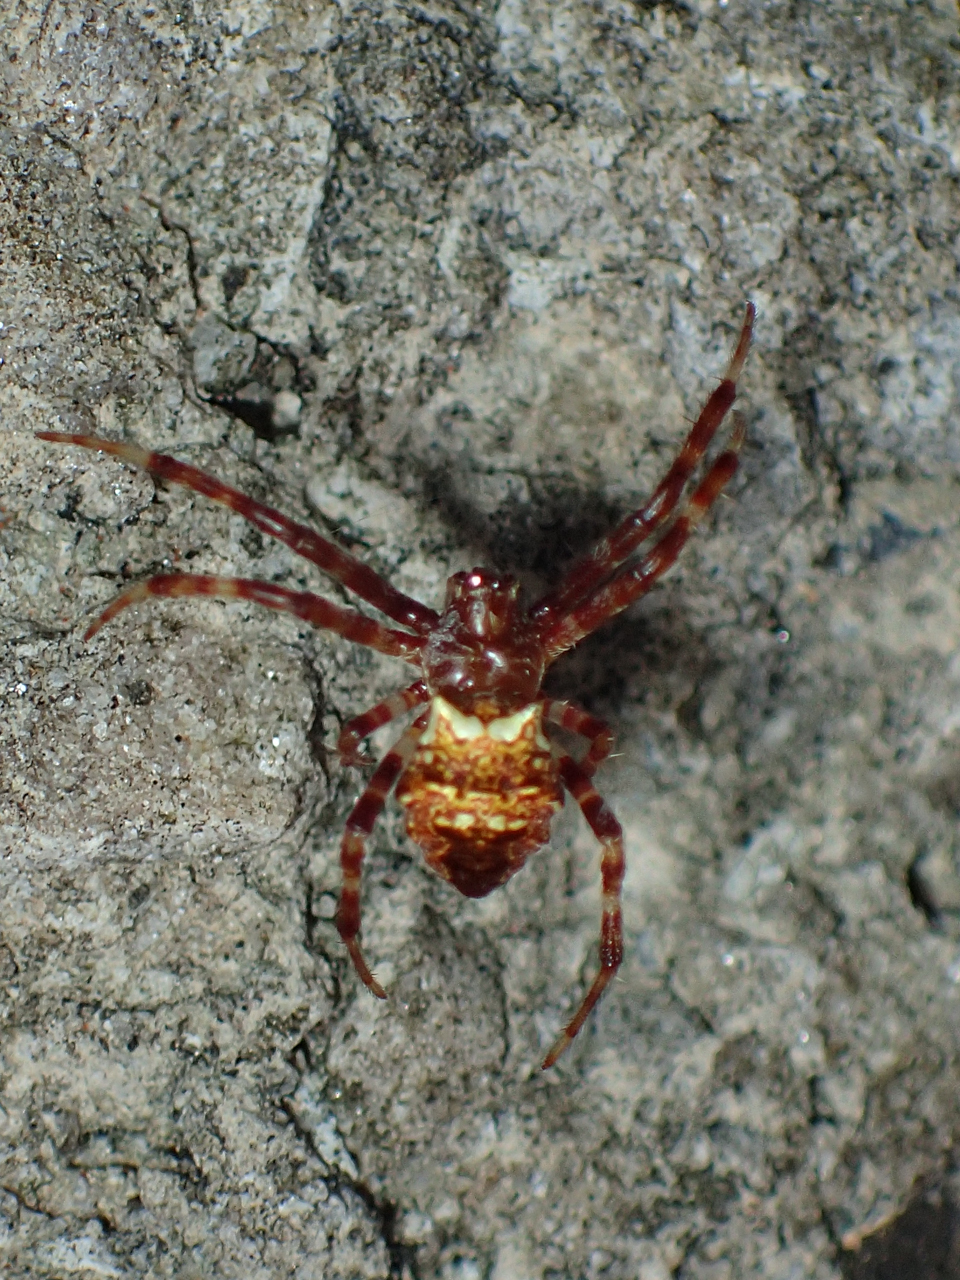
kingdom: Animalia
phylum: Arthropoda
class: Arachnida
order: Araneae
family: Araneidae
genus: Gea
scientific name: Gea heptagon
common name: Orb weavers
